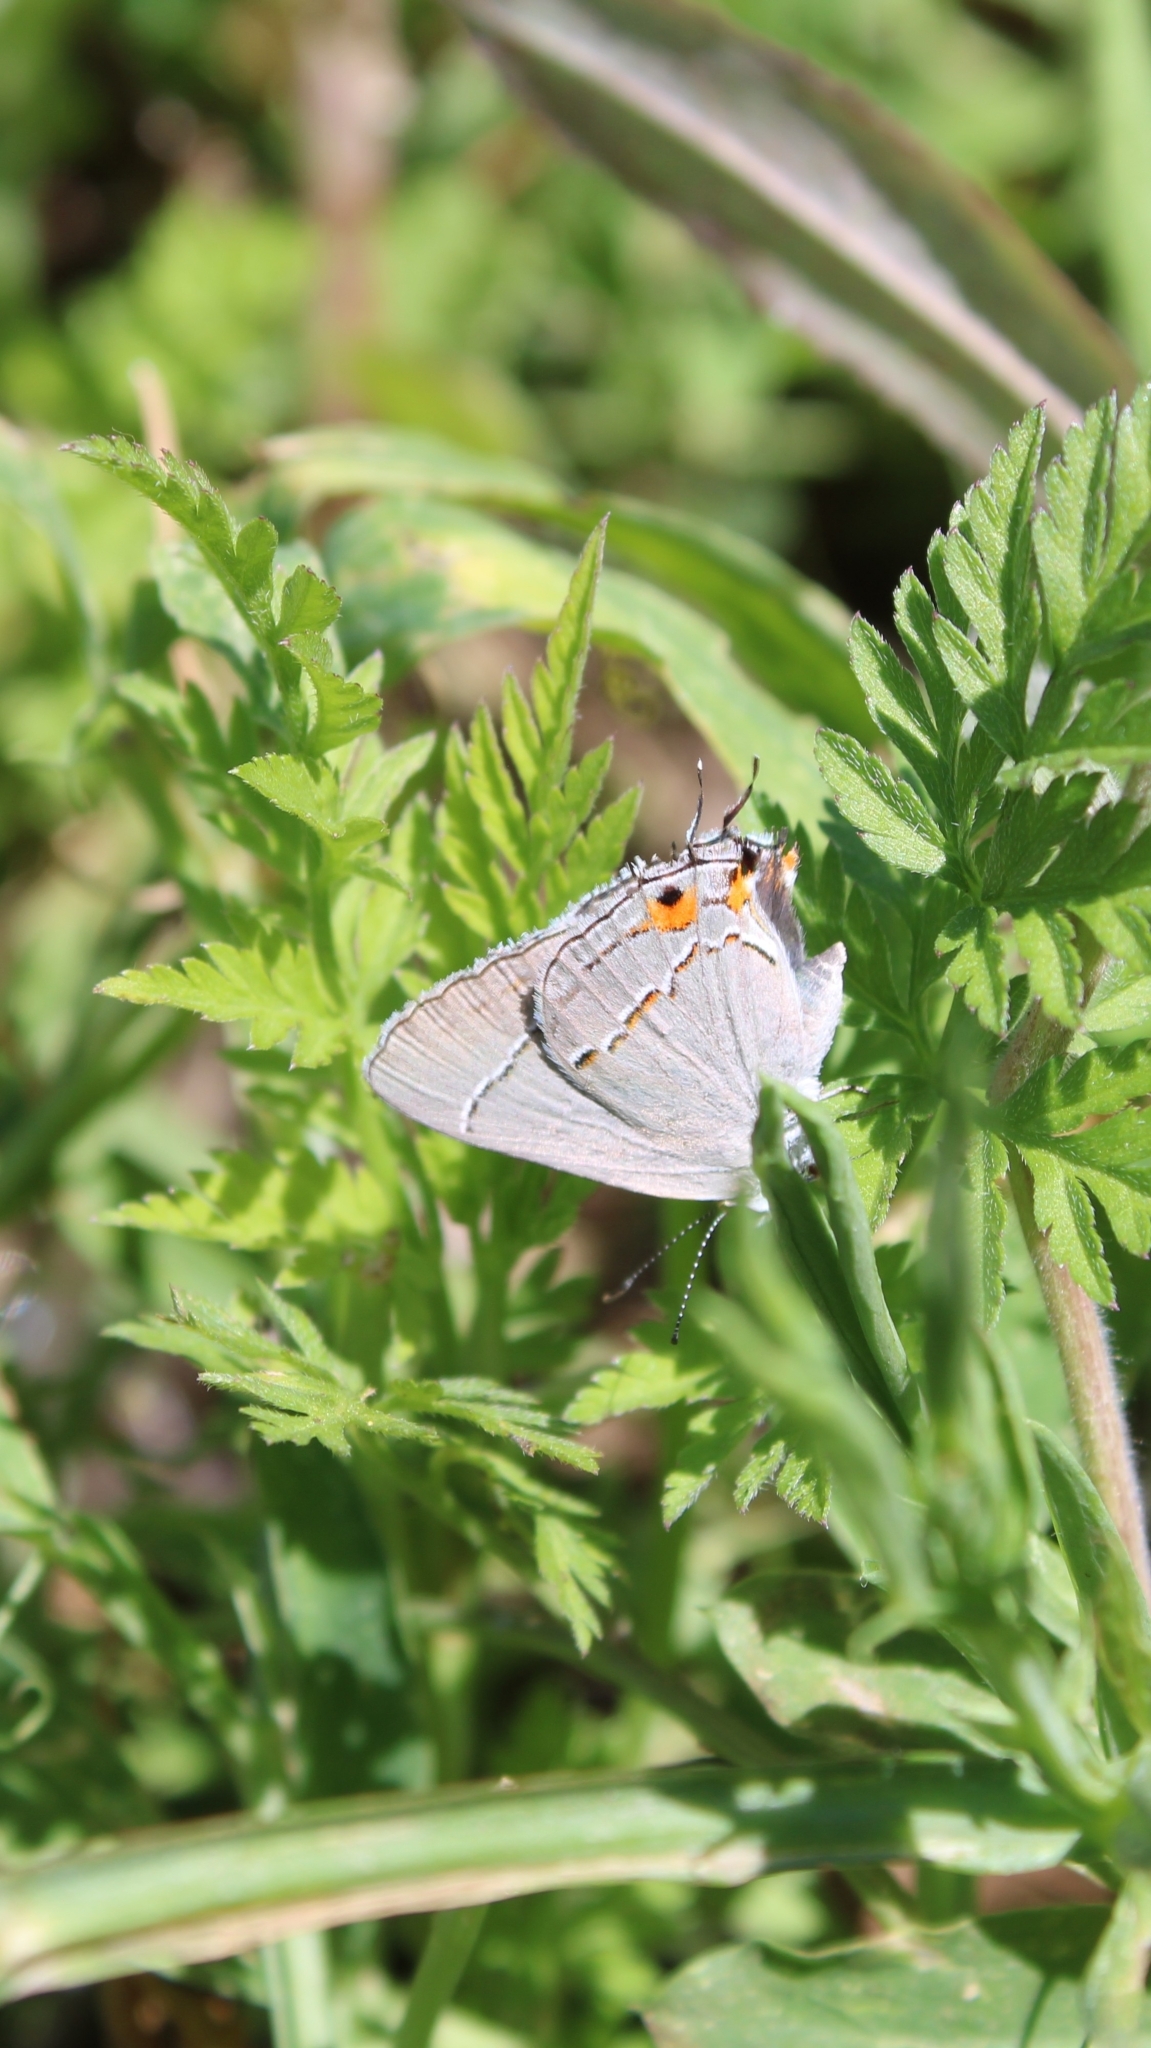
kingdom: Animalia
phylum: Arthropoda
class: Insecta
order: Lepidoptera
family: Lycaenidae
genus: Strymon
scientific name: Strymon melinus
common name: Gray hairstreak
